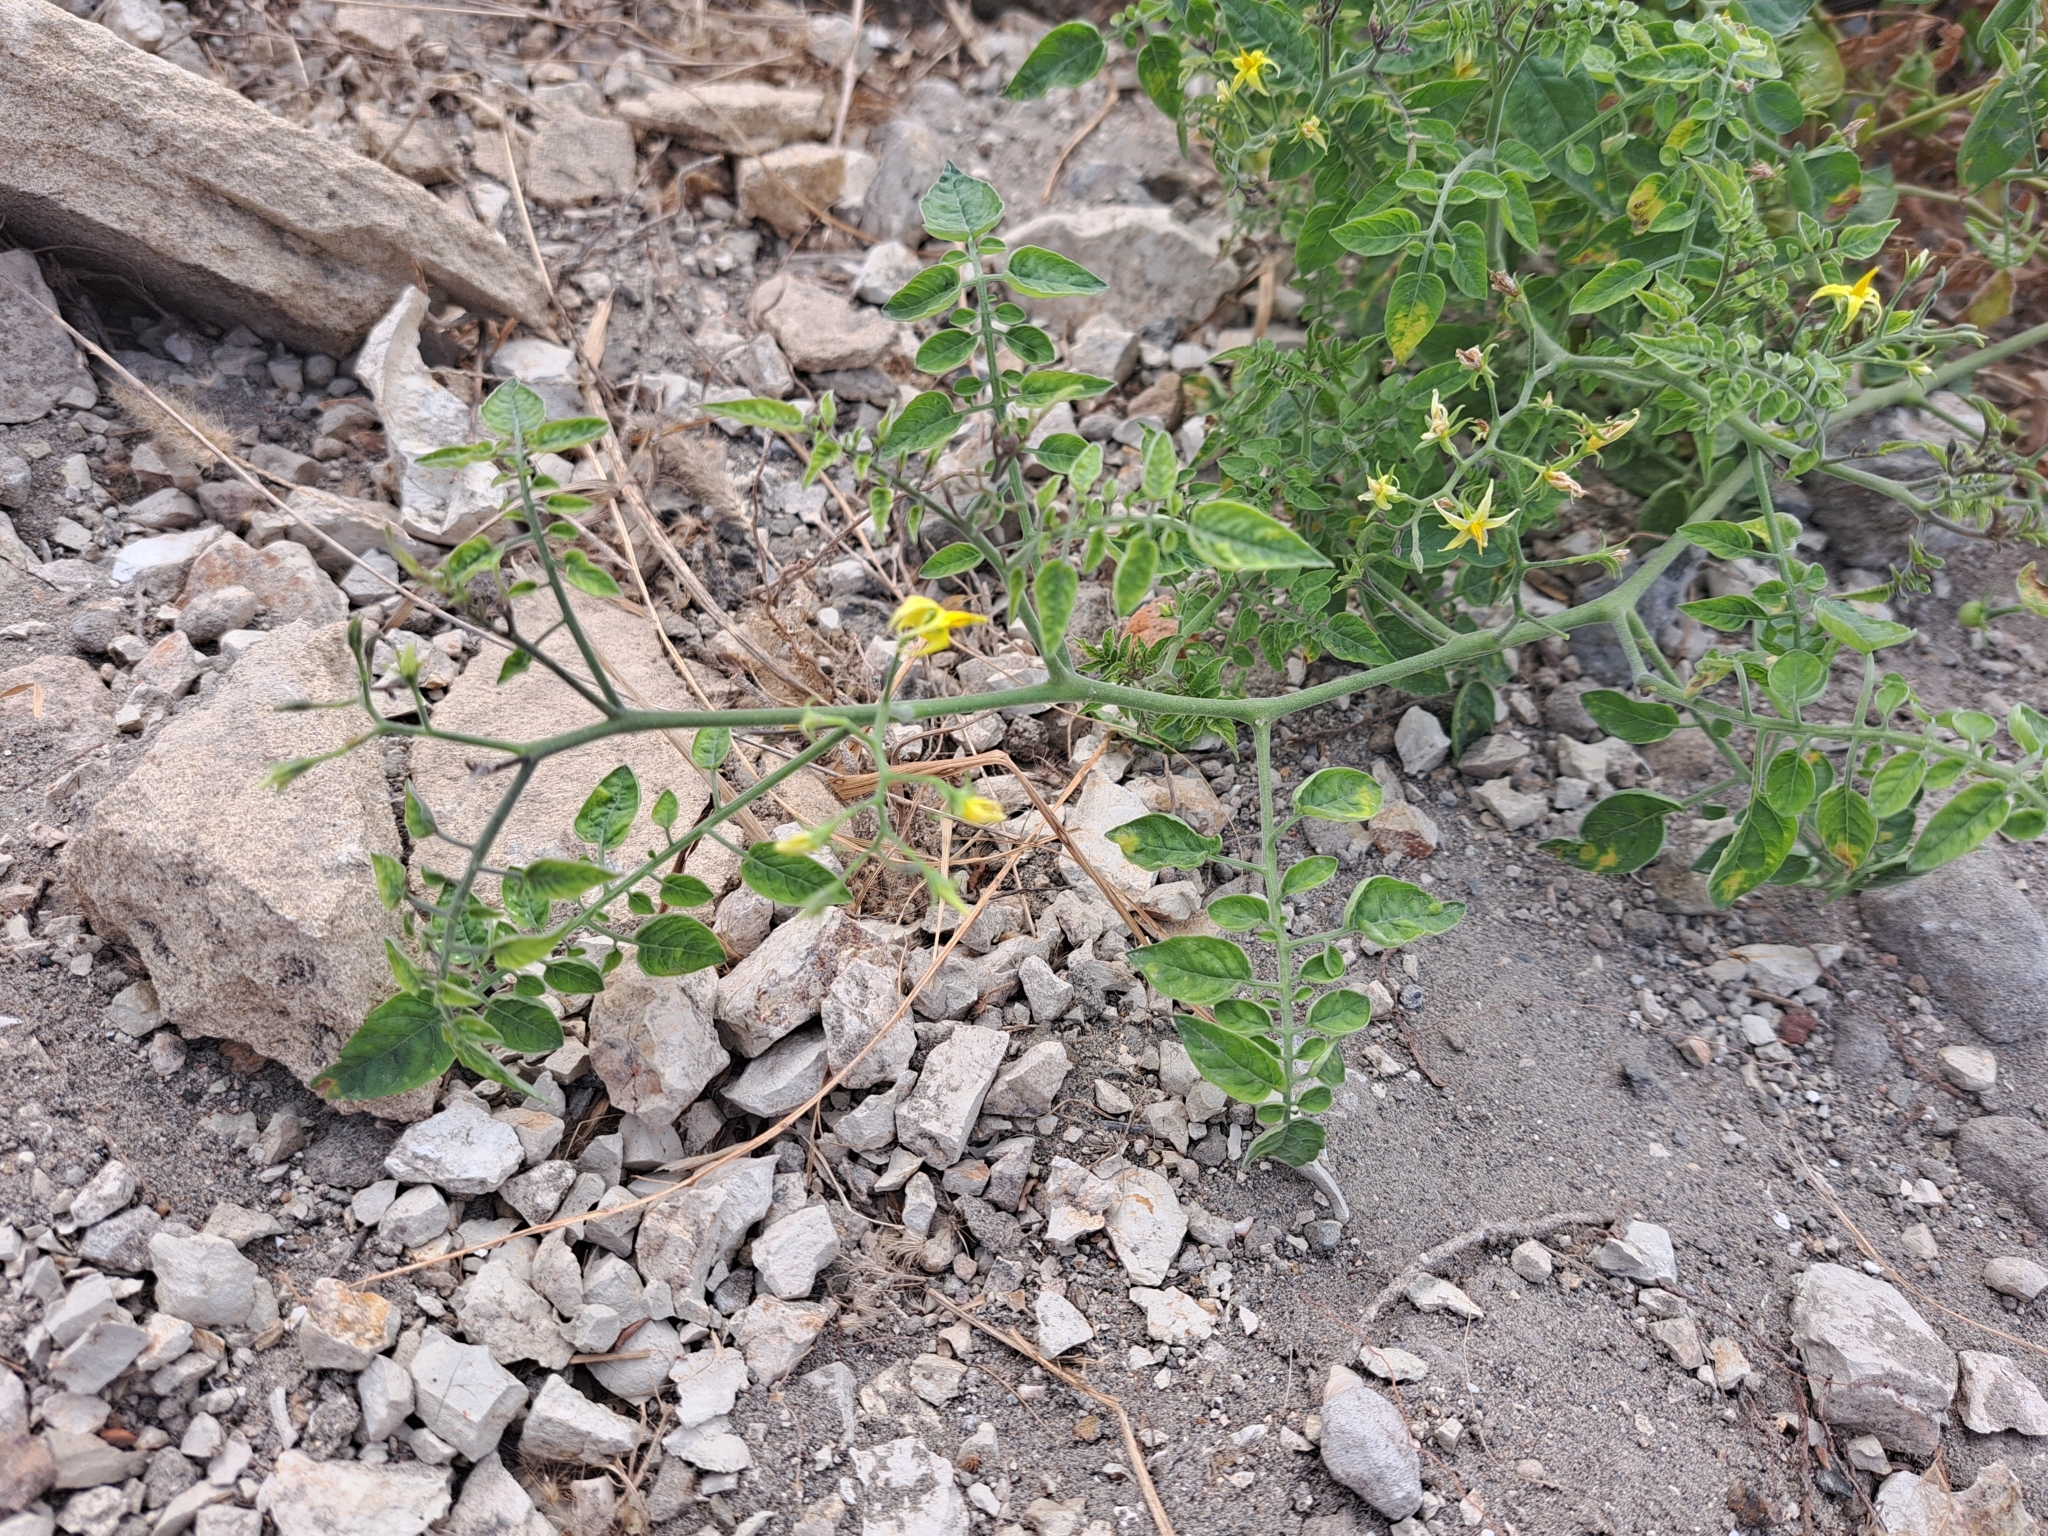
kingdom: Plantae
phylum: Tracheophyta
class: Magnoliopsida
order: Solanales
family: Solanaceae
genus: Solanum
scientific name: Solanum pimpinellifolium
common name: Currant-tomato
